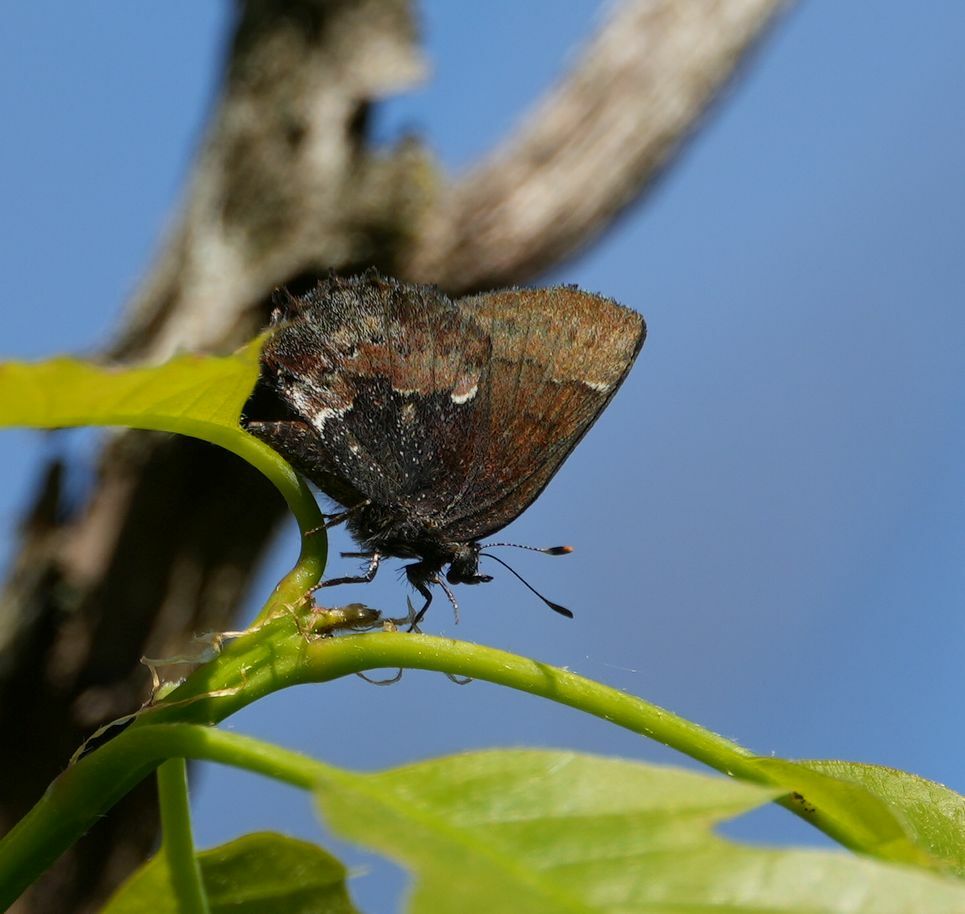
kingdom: Animalia
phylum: Arthropoda
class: Insecta
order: Lepidoptera
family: Lycaenidae
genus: Incisalia
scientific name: Incisalia henrici
